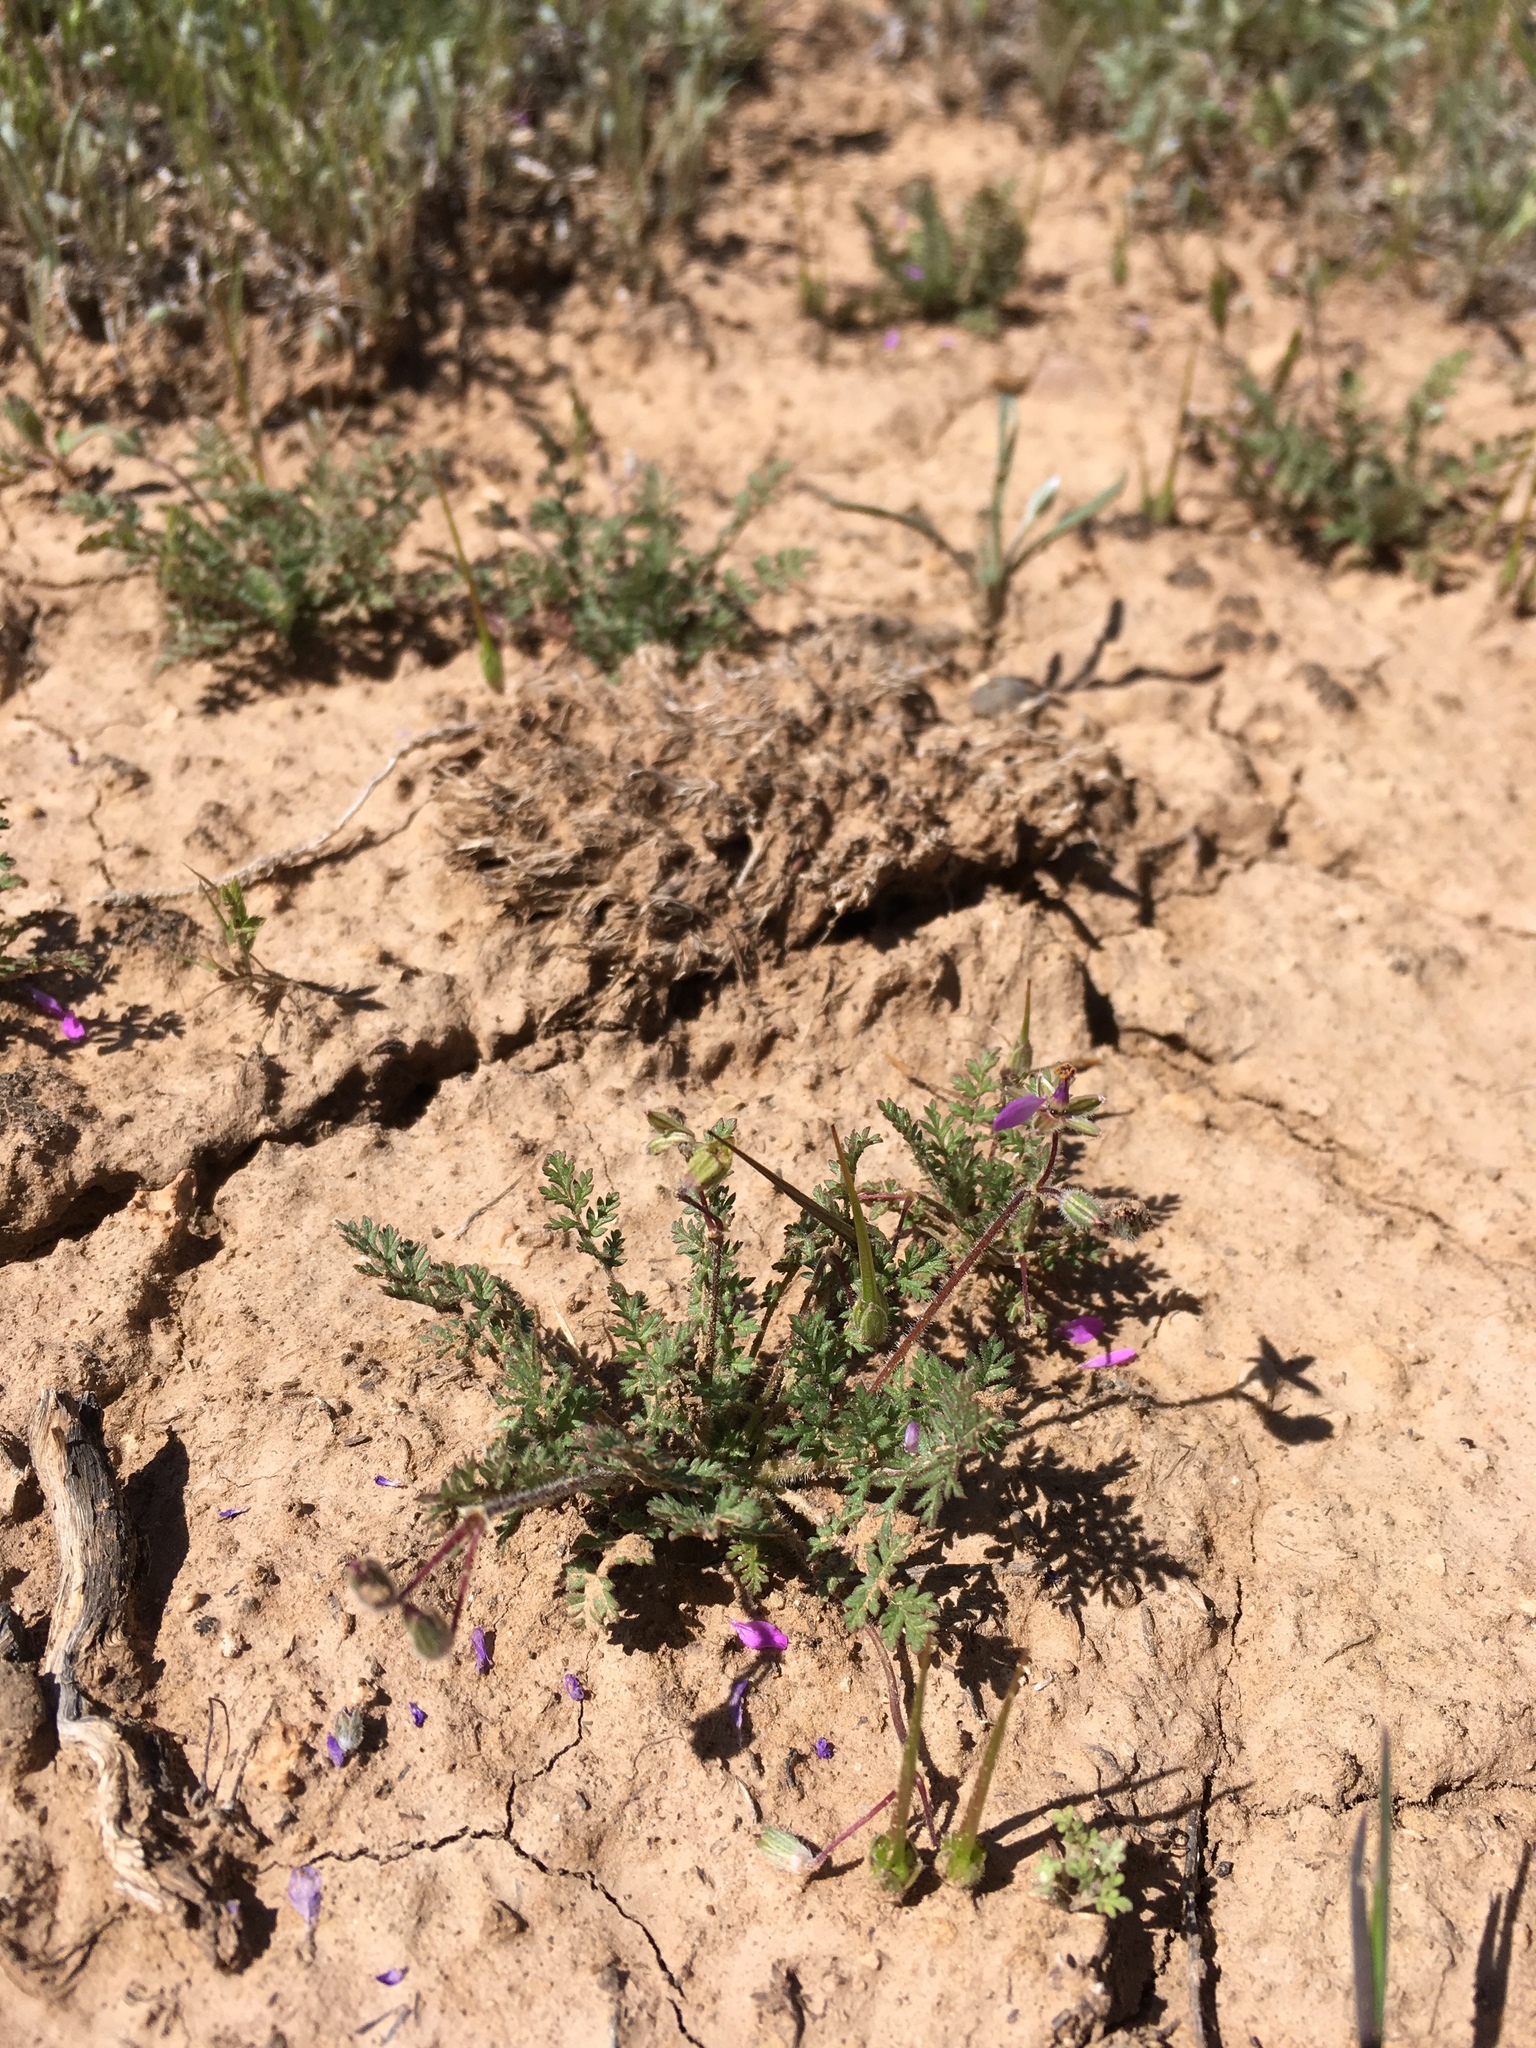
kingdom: Plantae
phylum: Tracheophyta
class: Magnoliopsida
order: Geraniales
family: Geraniaceae
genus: Erodium
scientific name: Erodium cicutarium
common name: Common stork's-bill
